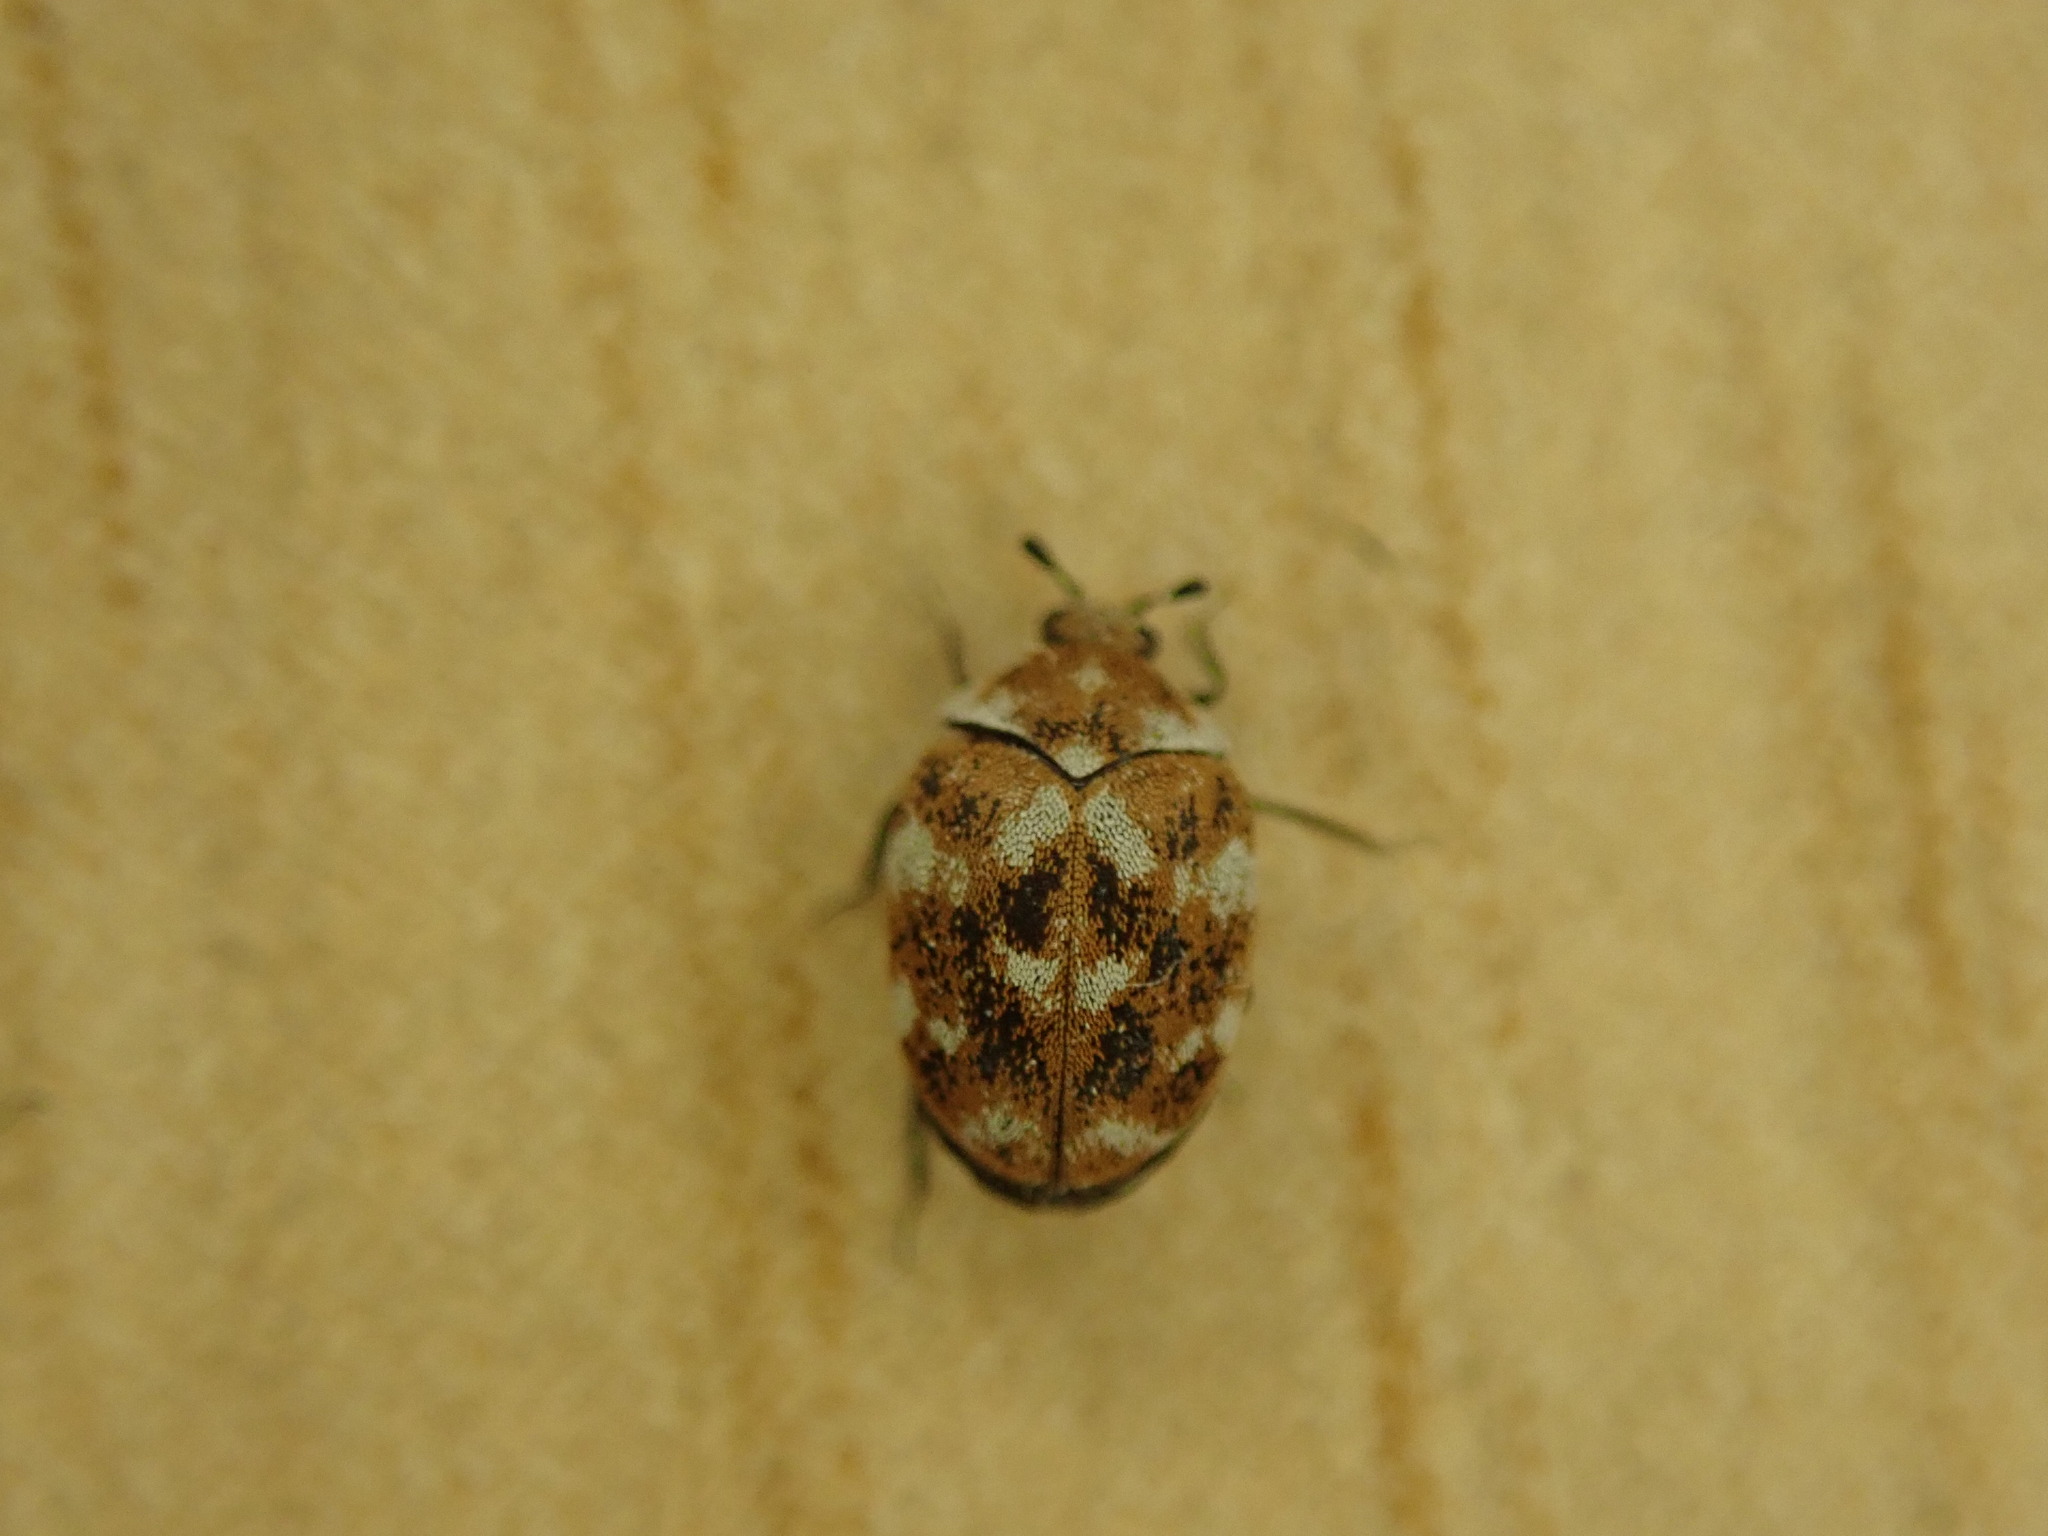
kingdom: Animalia
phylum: Arthropoda
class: Insecta
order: Coleoptera
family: Dermestidae
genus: Anthrenus
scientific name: Anthrenus verbasci
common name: Varied carpet beetle
